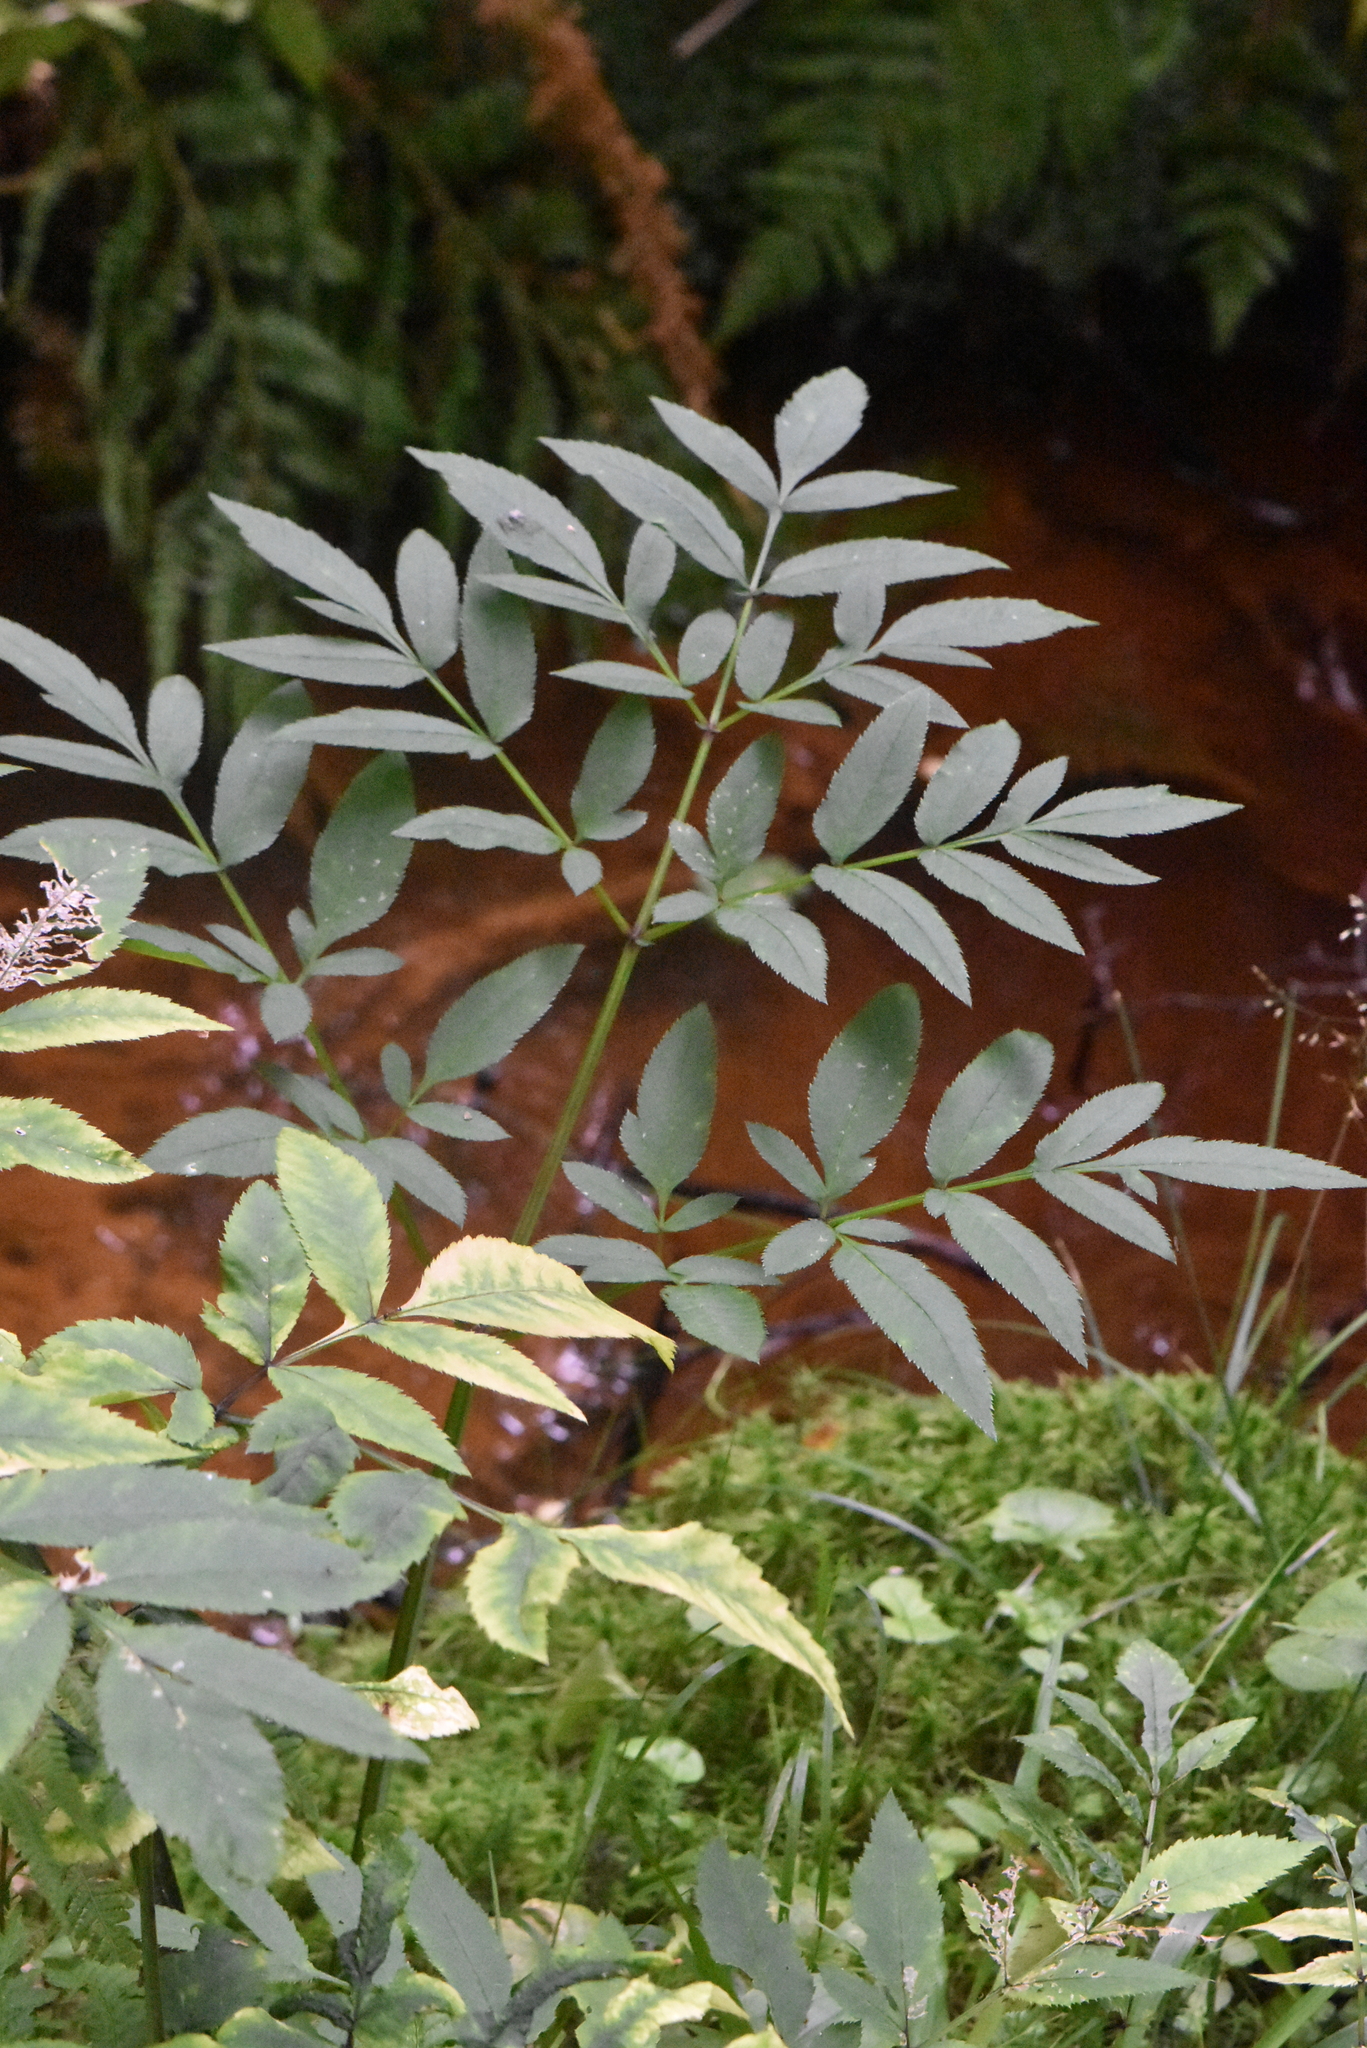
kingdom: Plantae
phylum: Tracheophyta
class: Magnoliopsida
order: Apiales
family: Apiaceae
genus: Angelica
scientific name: Angelica sylvestris
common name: Wild angelica
